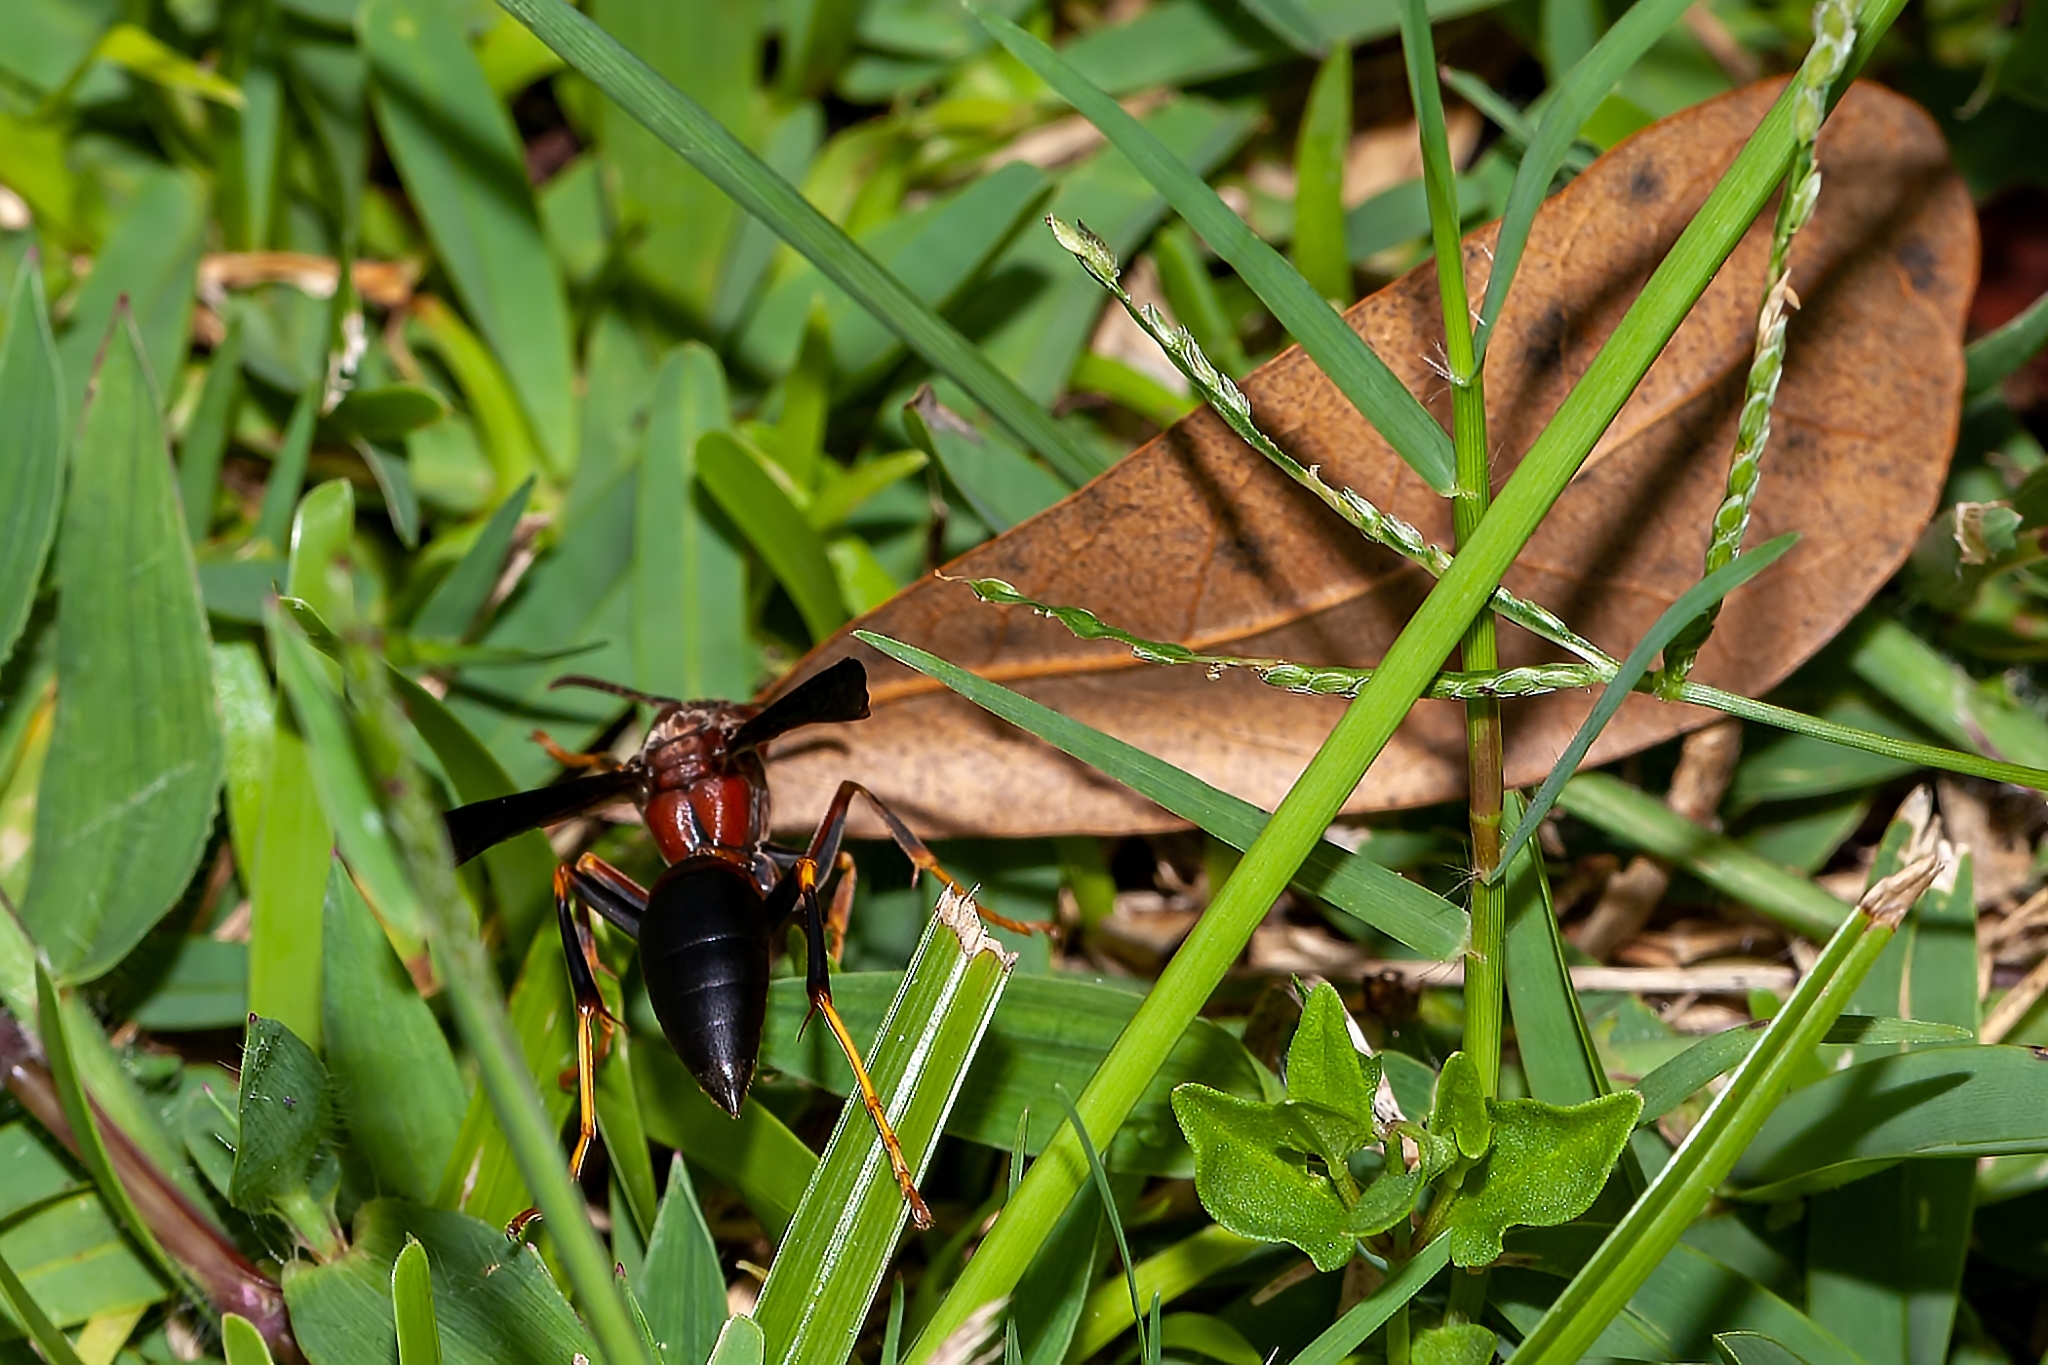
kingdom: Animalia
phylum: Arthropoda
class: Insecta
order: Hymenoptera
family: Eumenidae
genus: Polistes
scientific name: Polistes metricus
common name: Metric paper wasp
